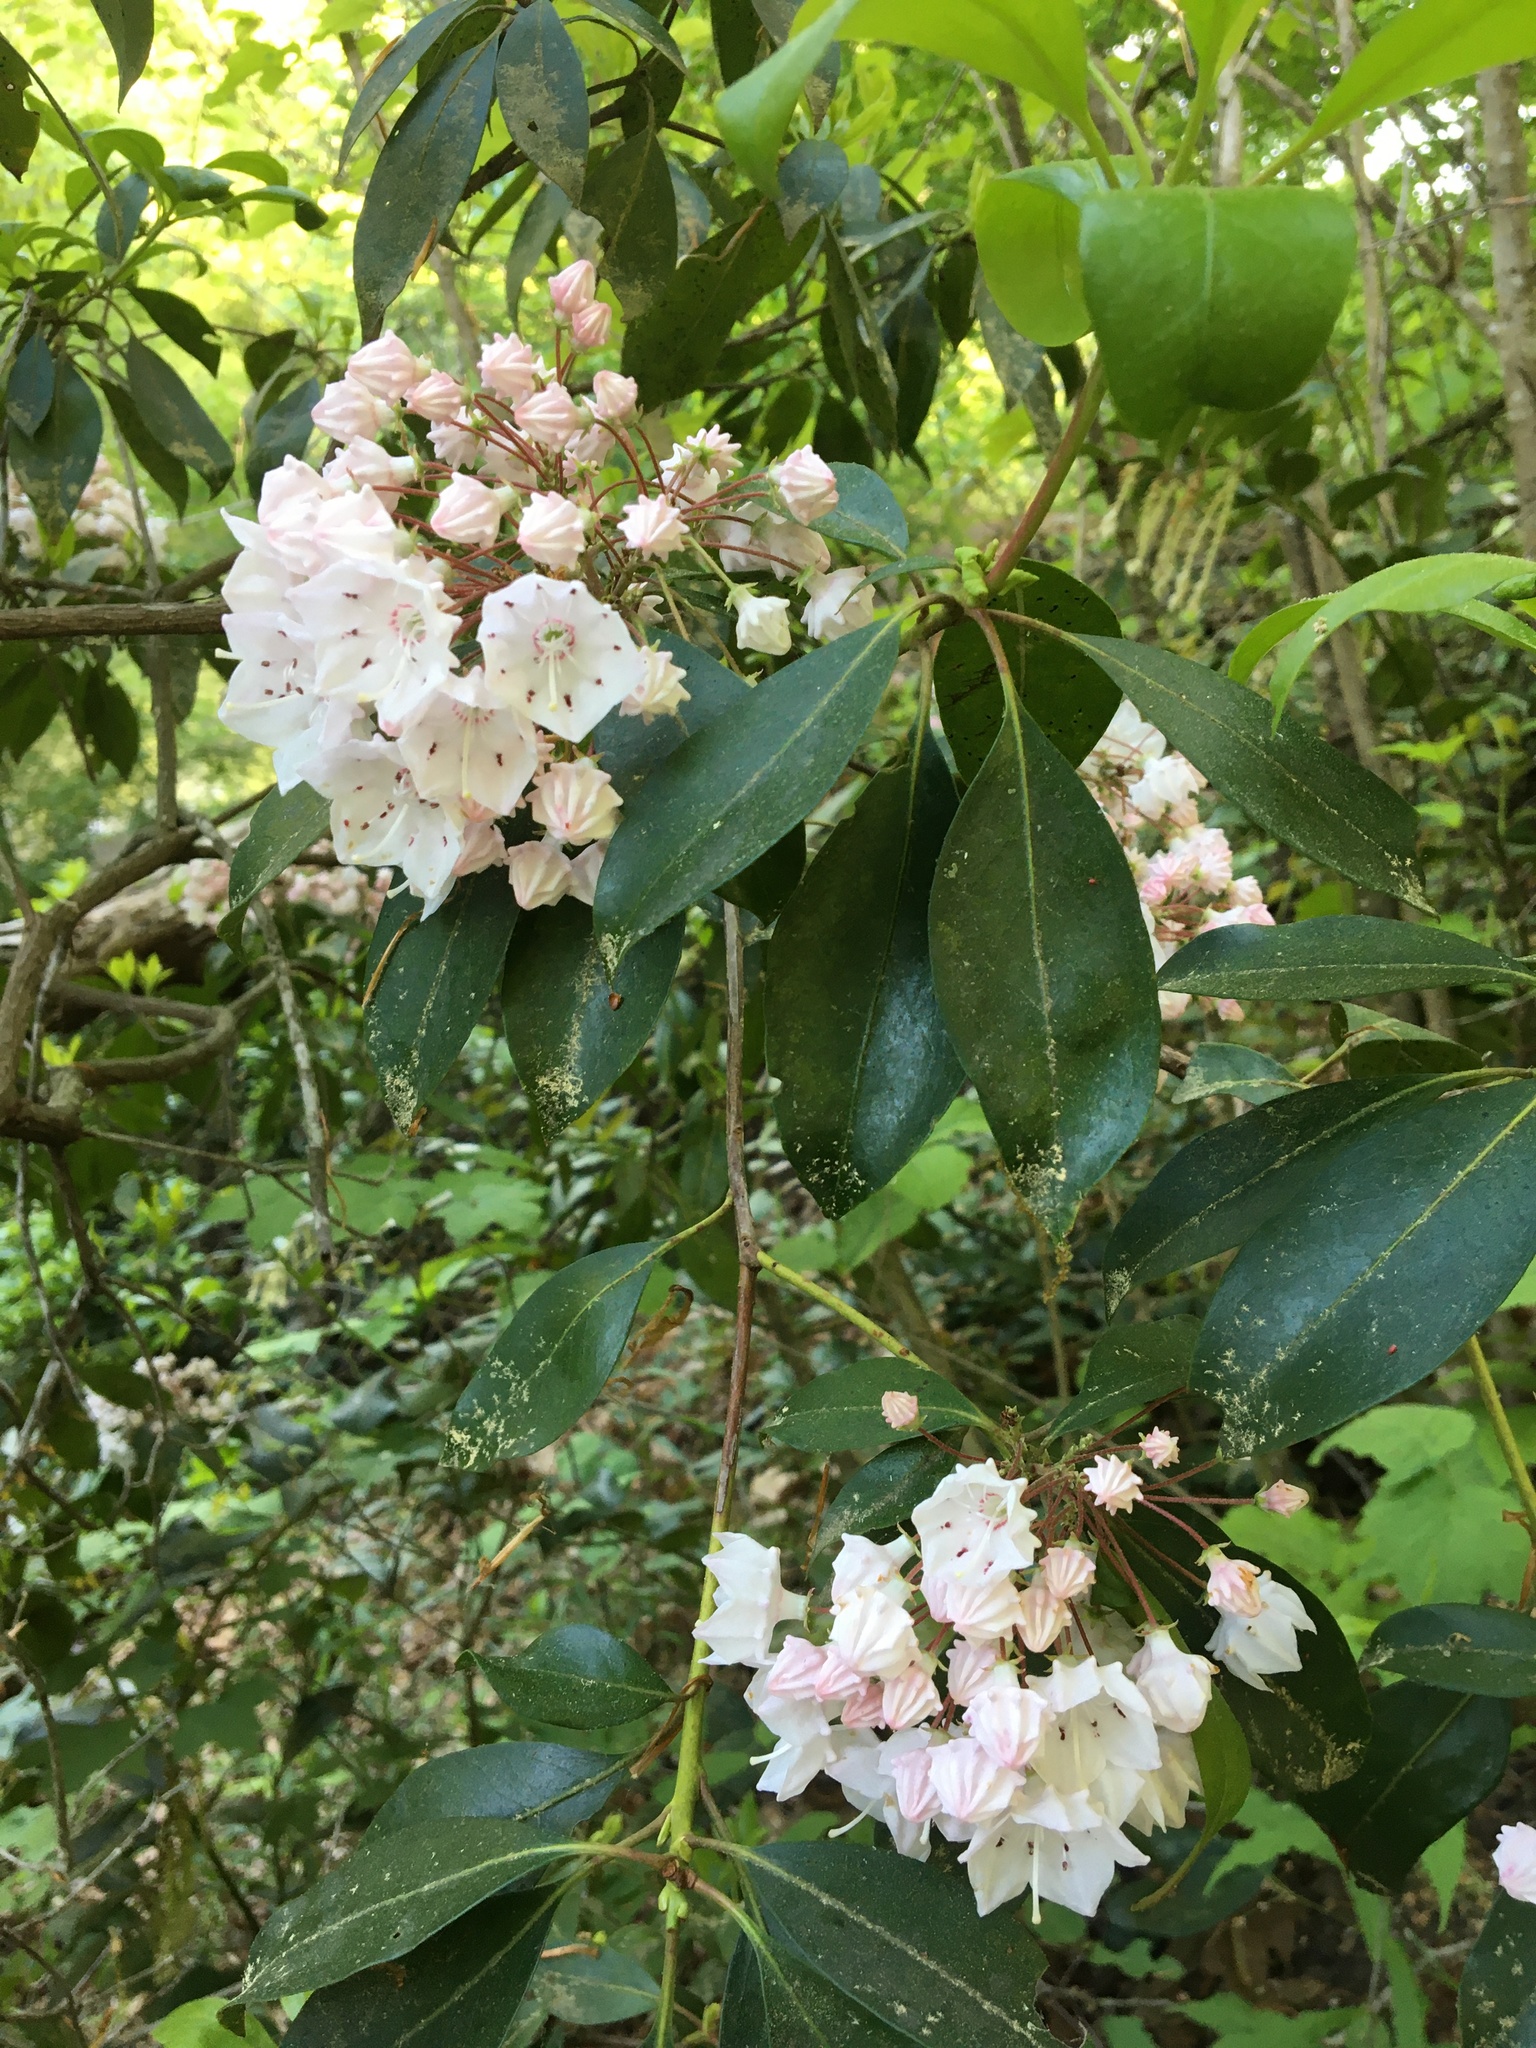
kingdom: Plantae
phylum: Tracheophyta
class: Magnoliopsida
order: Ericales
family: Ericaceae
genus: Kalmia
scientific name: Kalmia latifolia
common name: Mountain-laurel
